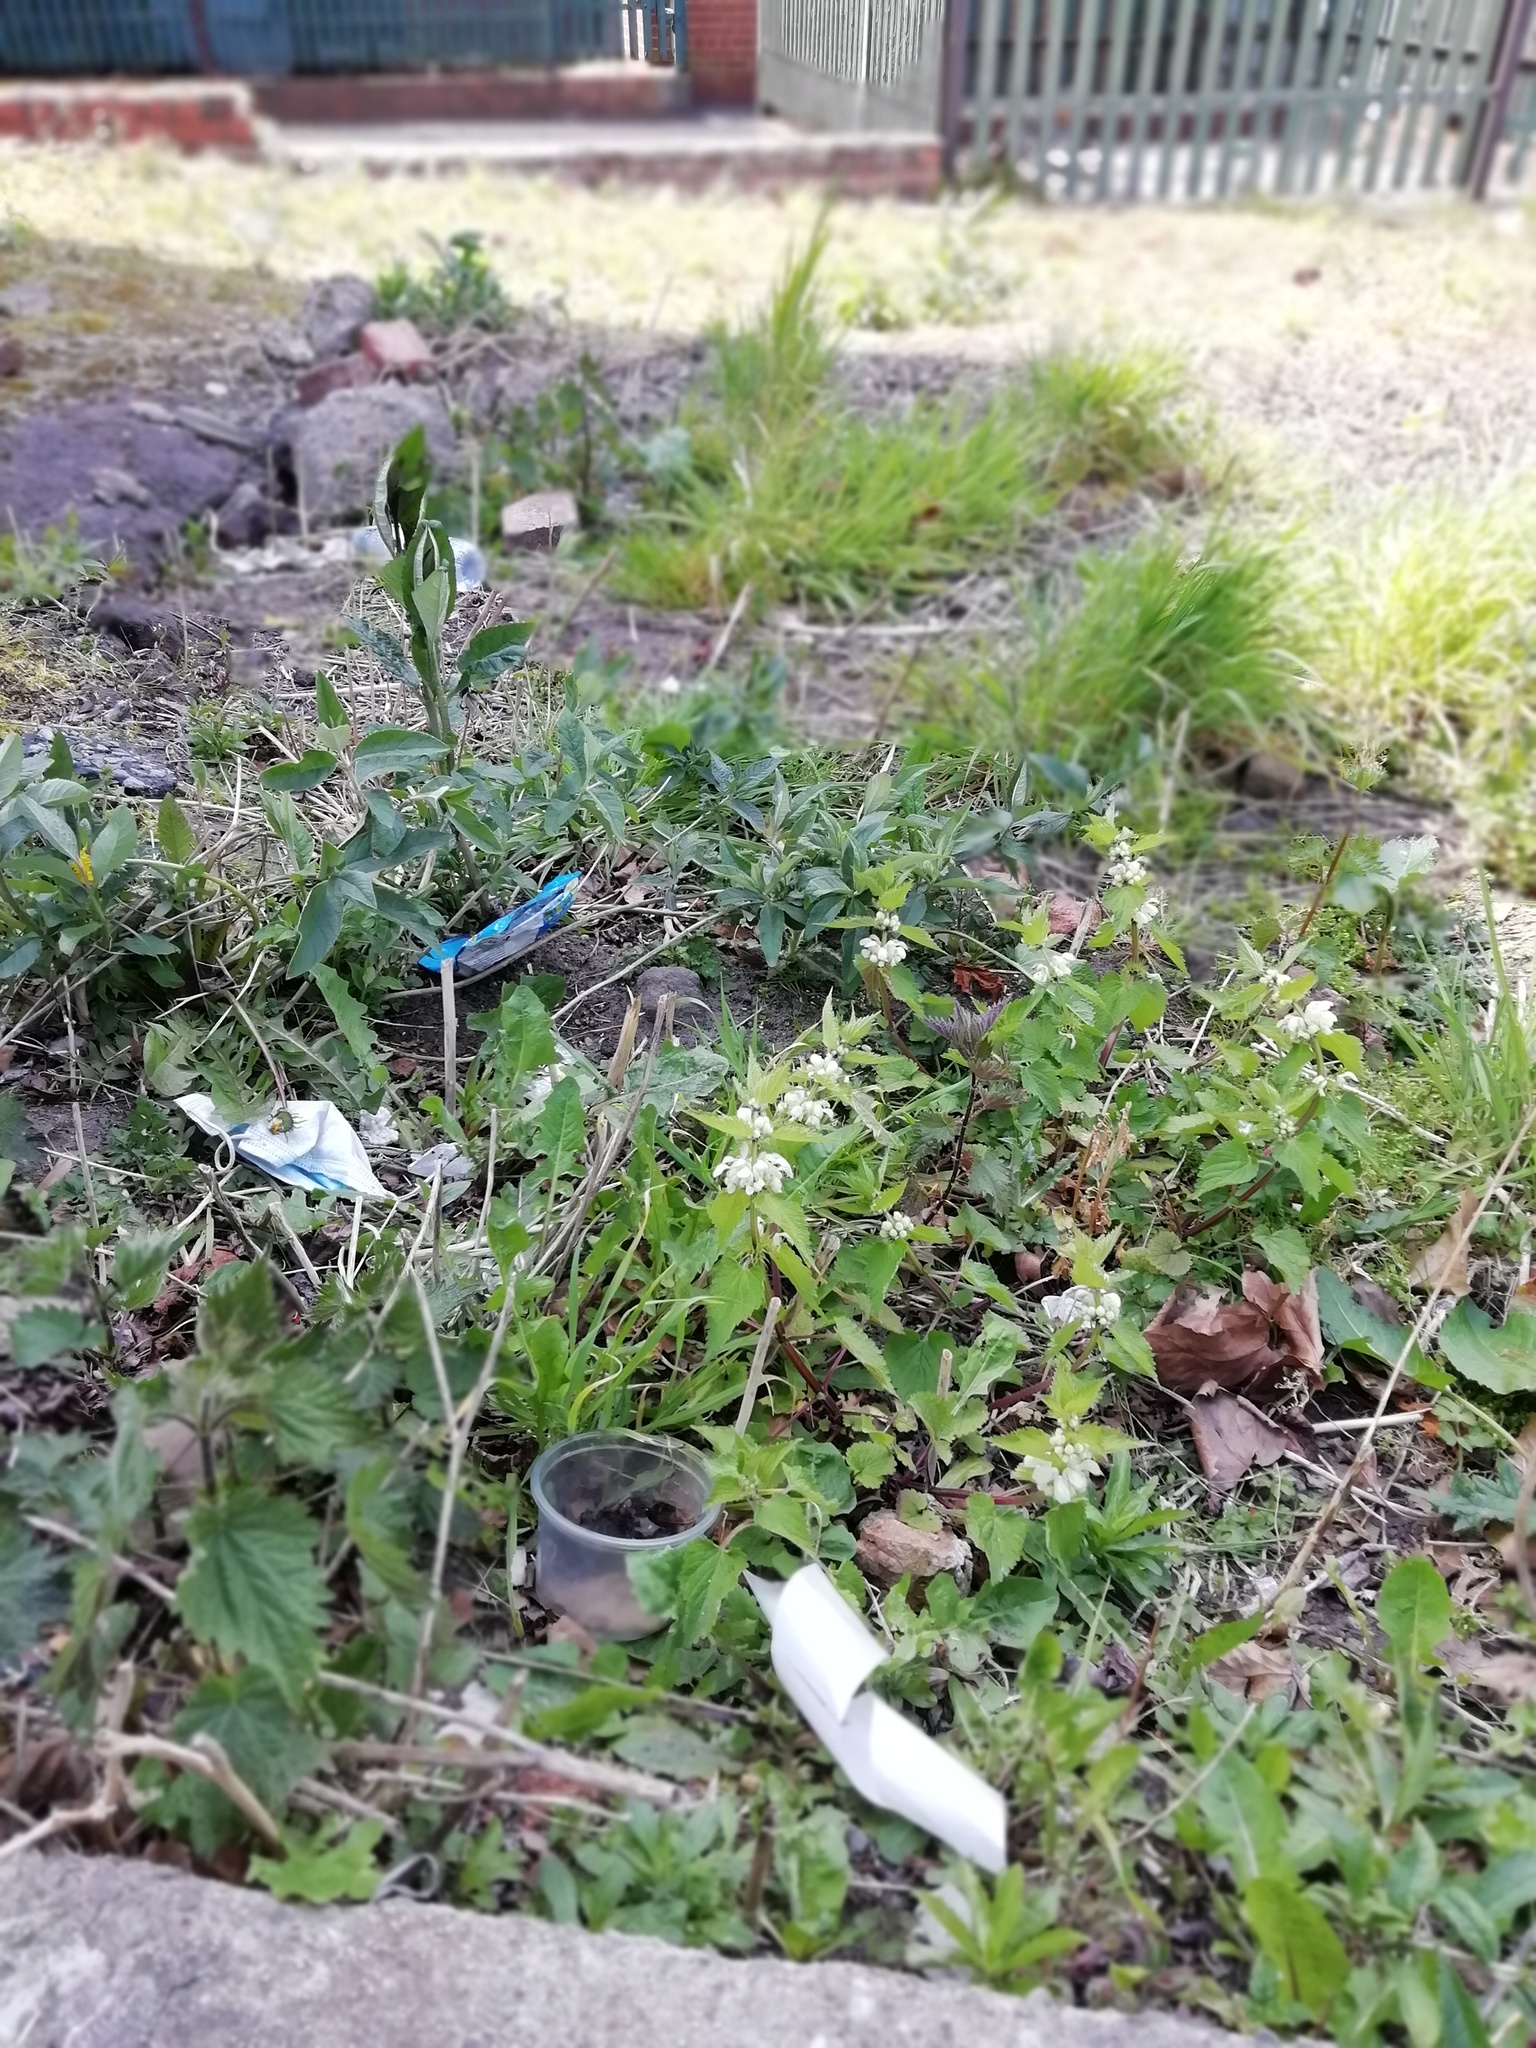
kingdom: Plantae
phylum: Tracheophyta
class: Magnoliopsida
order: Lamiales
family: Lamiaceae
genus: Lamium
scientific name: Lamium album
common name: White dead-nettle
